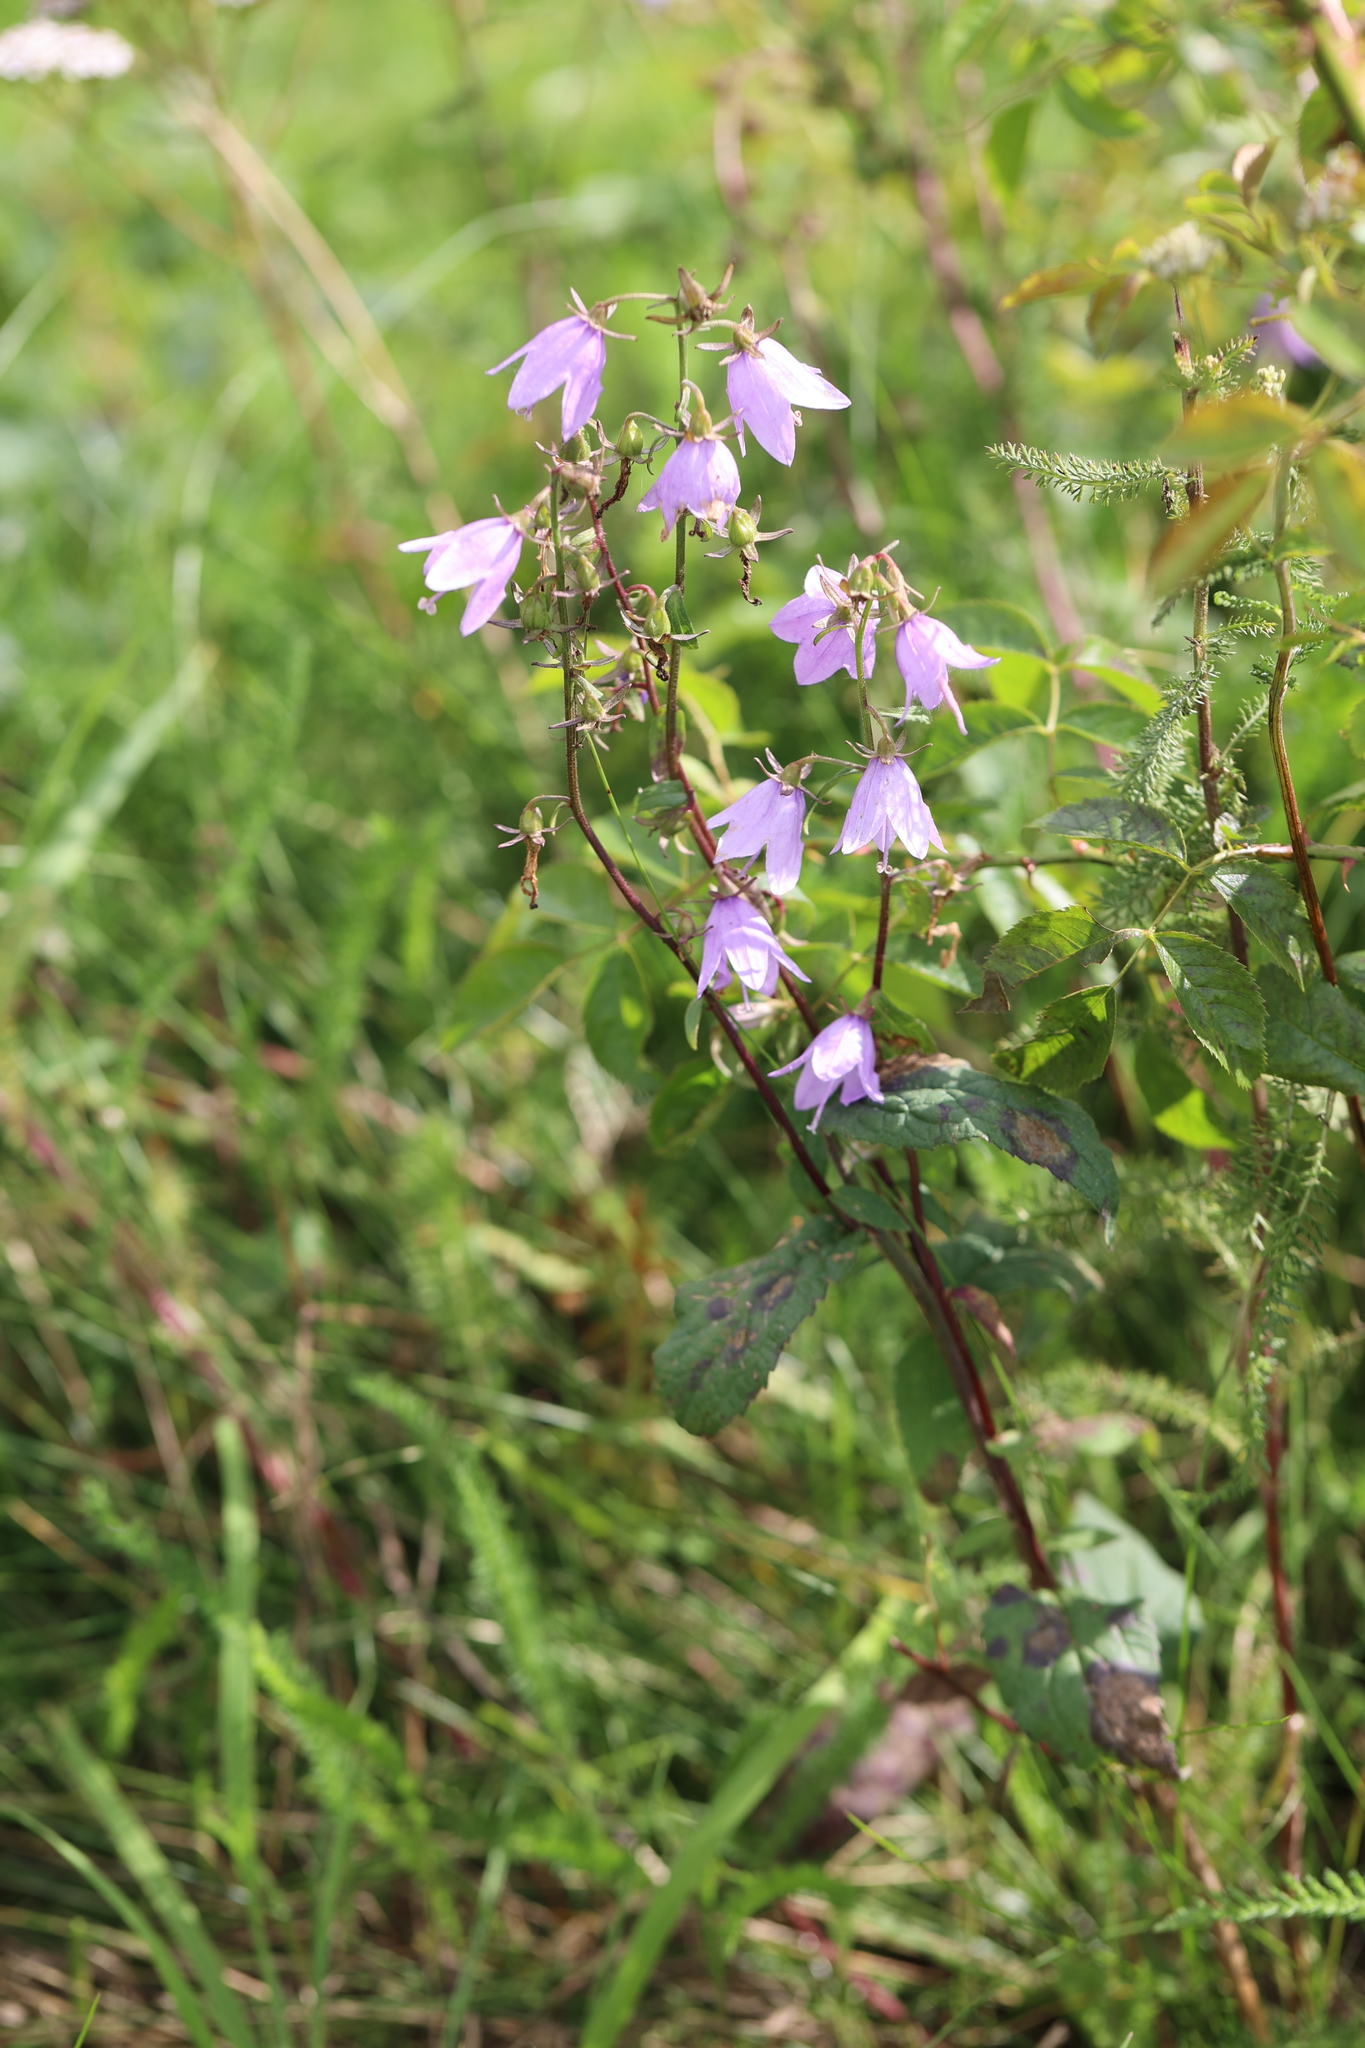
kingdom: Plantae
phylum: Tracheophyta
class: Magnoliopsida
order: Asterales
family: Campanulaceae
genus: Campanula
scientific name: Campanula rapunculoides
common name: Creeping bellflower
